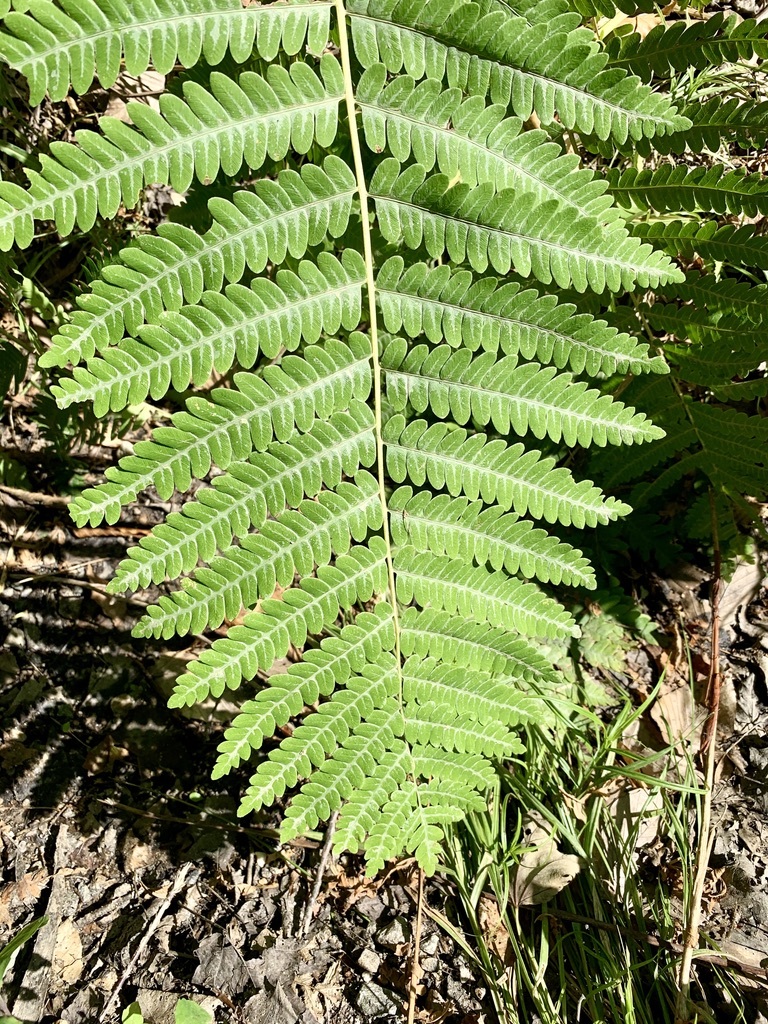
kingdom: Plantae
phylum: Tracheophyta
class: Polypodiopsida
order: Osmundales
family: Osmundaceae
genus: Claytosmunda
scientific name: Claytosmunda claytoniana
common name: Clayton's fern
